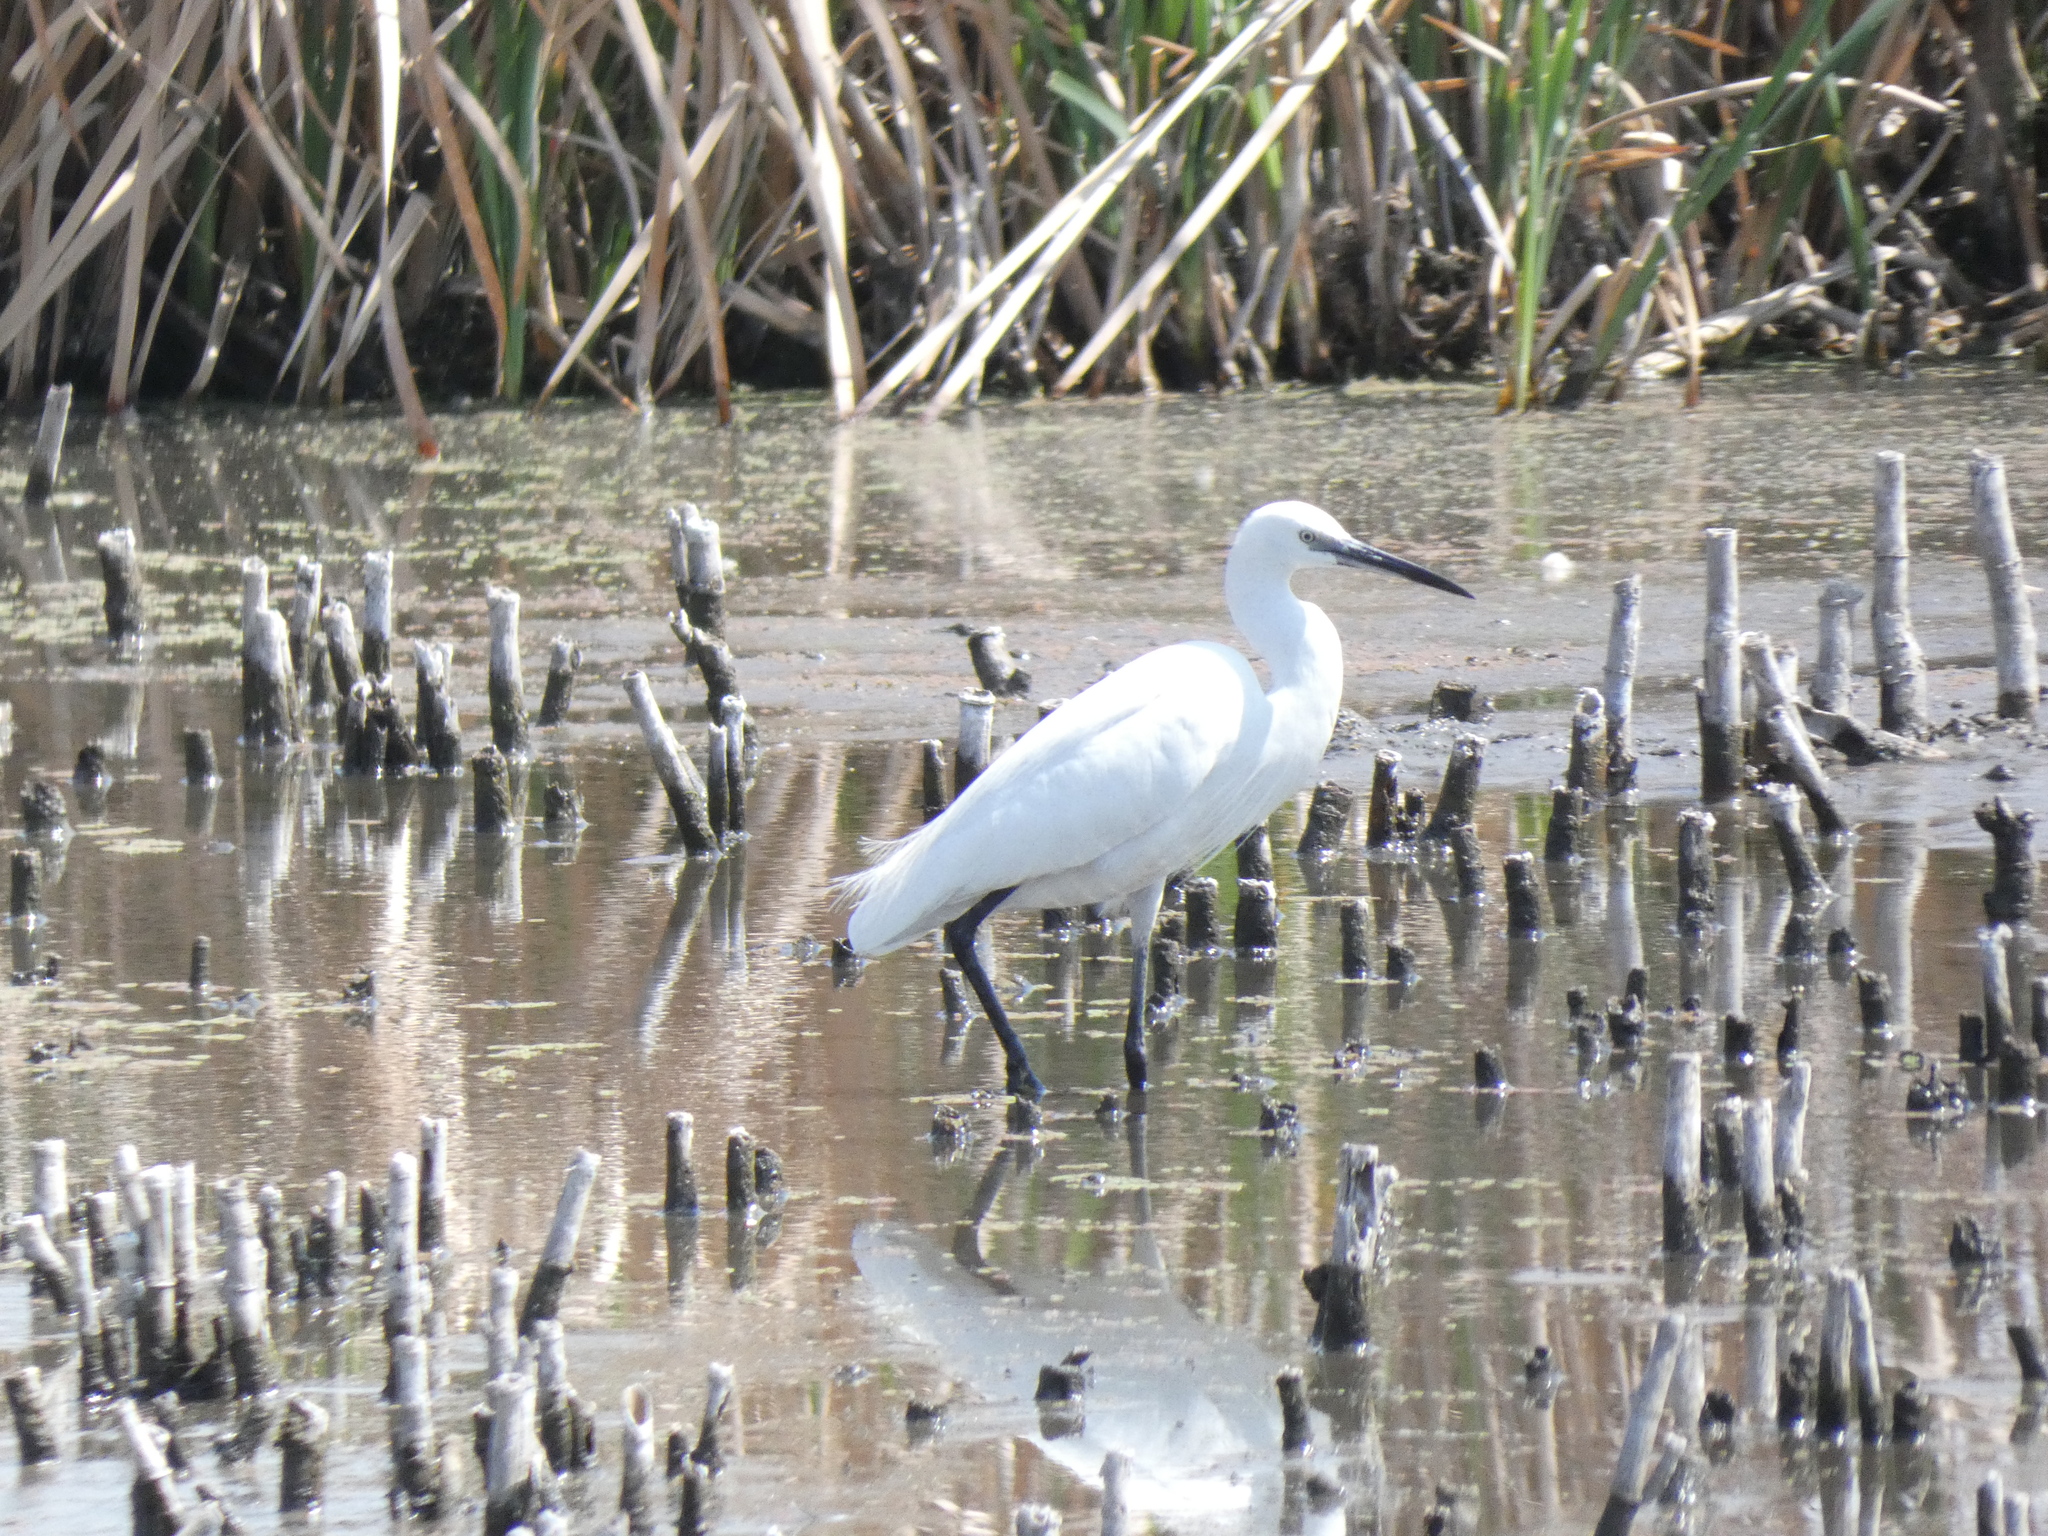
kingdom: Animalia
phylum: Chordata
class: Aves
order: Pelecaniformes
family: Ardeidae
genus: Egretta
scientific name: Egretta garzetta
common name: Little egret
